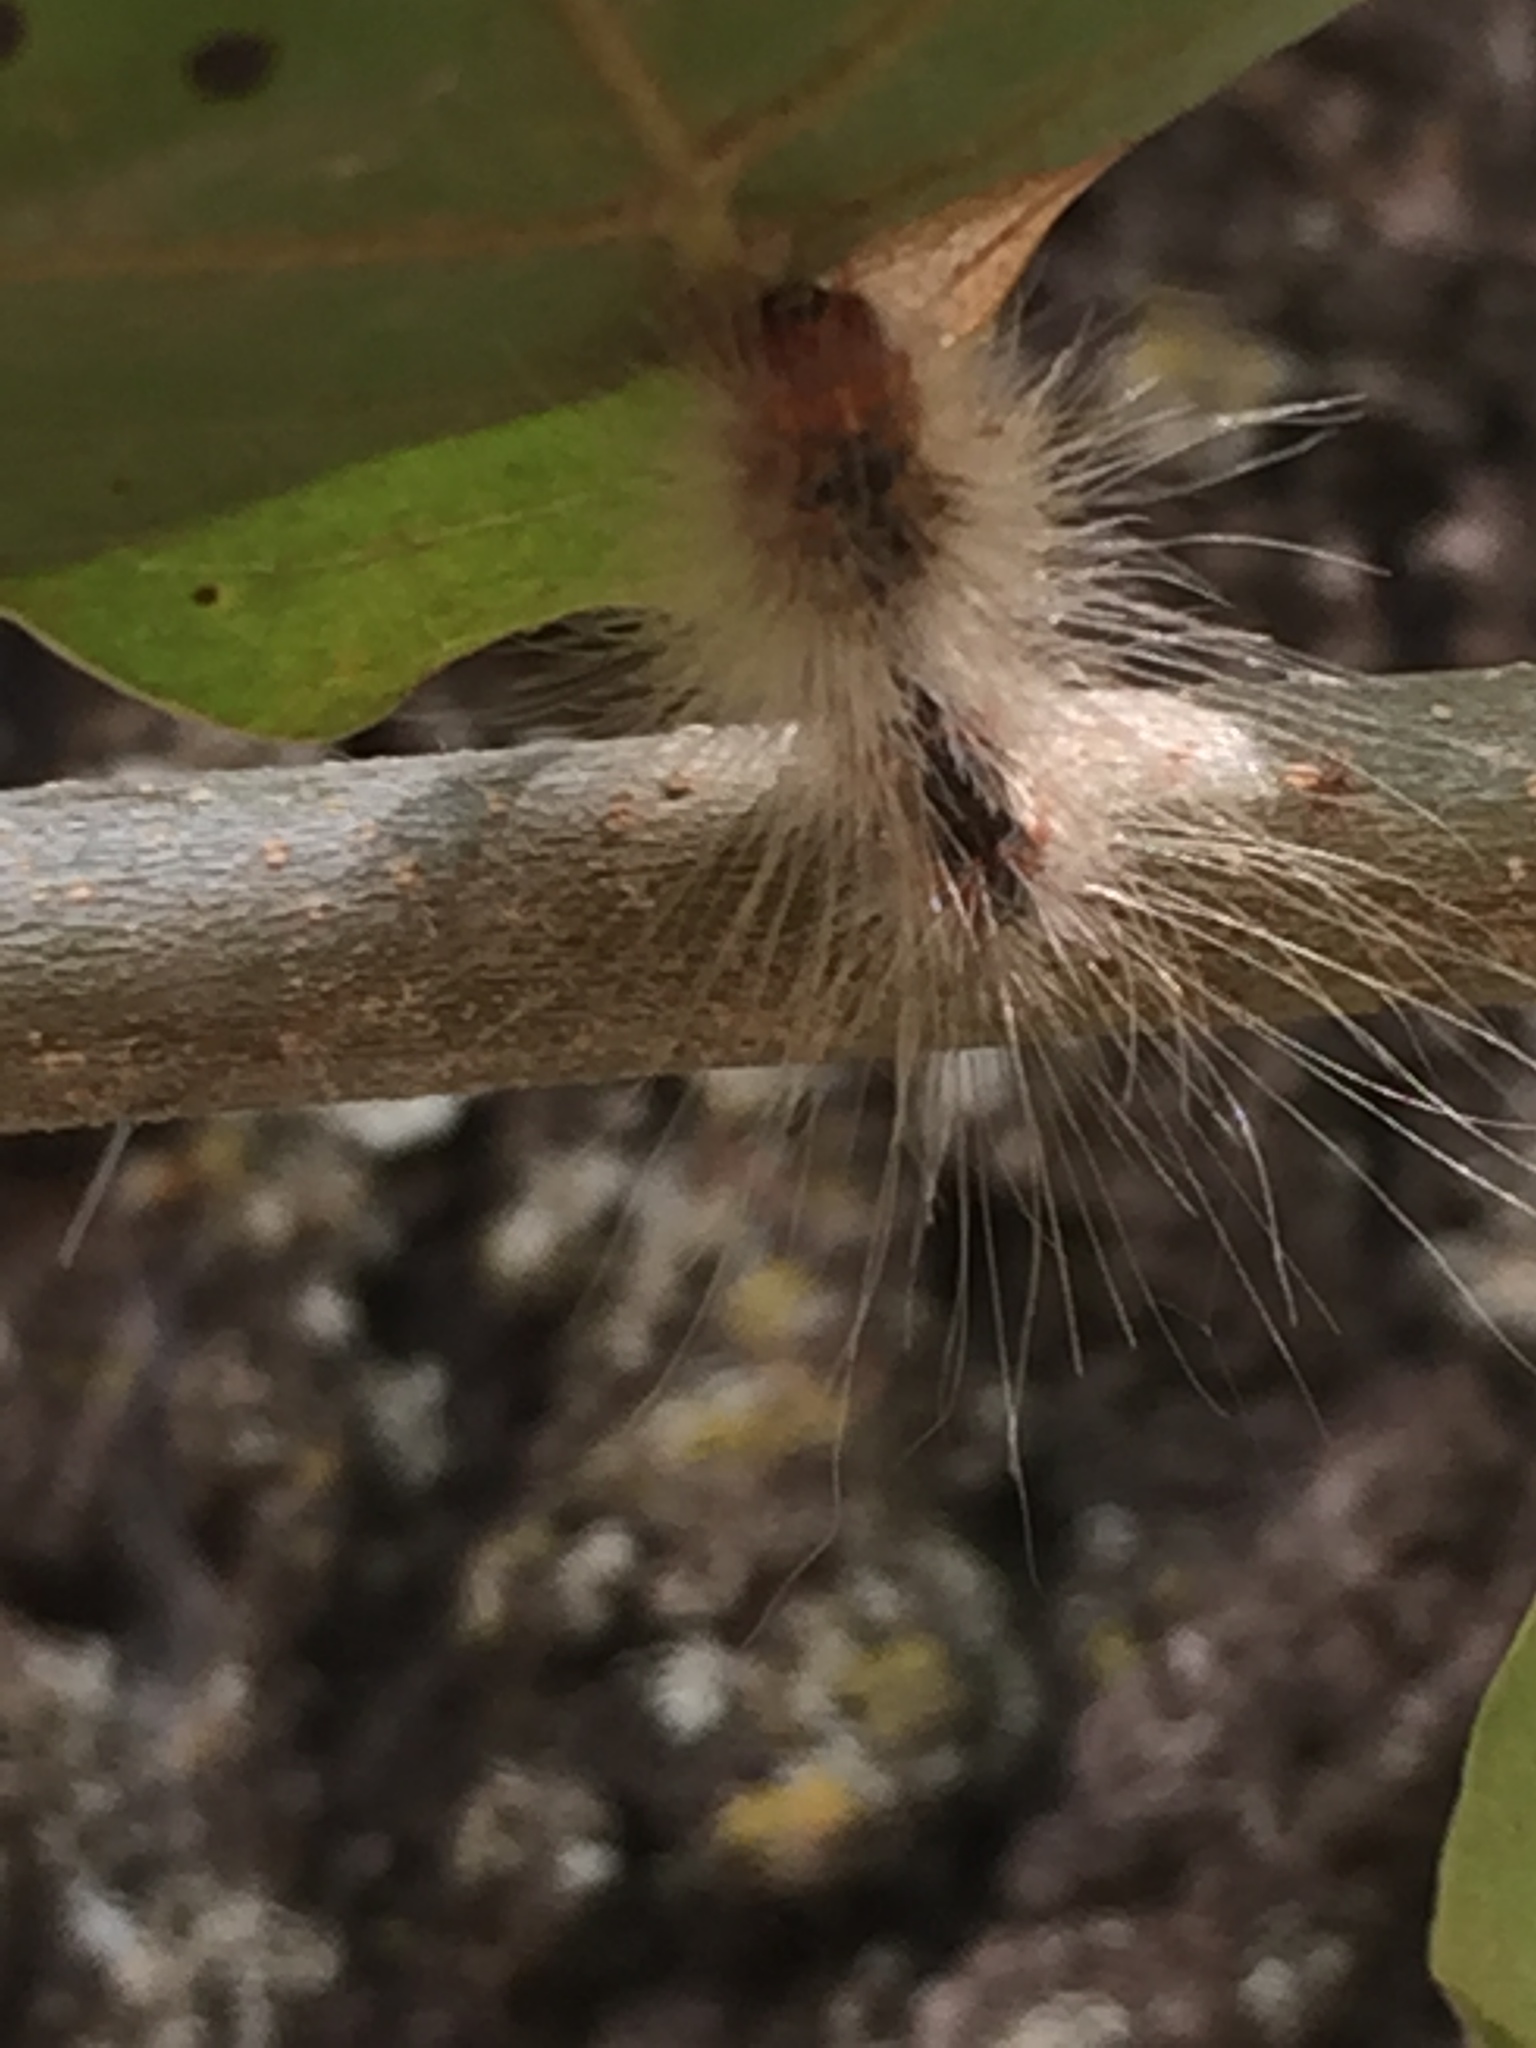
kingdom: Animalia
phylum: Arthropoda
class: Insecta
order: Lepidoptera
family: Erebidae
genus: Hyphantria
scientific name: Hyphantria cunea
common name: American white moth
